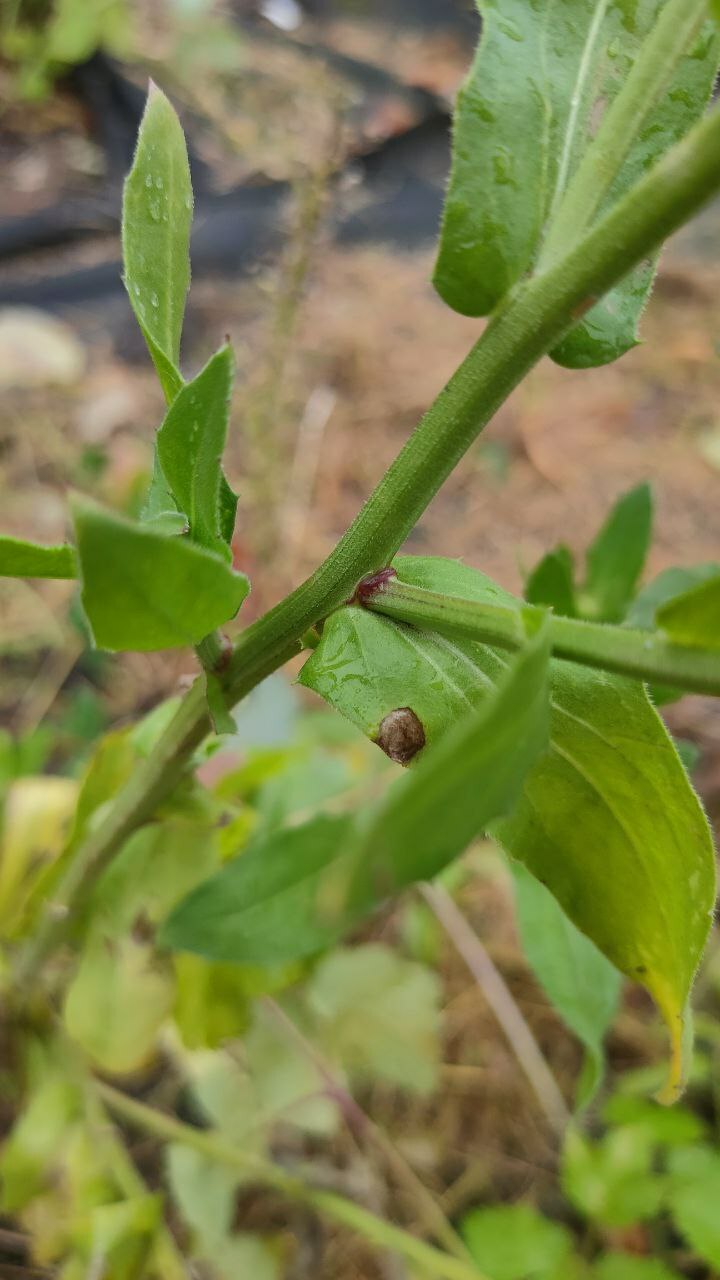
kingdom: Plantae
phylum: Tracheophyta
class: Magnoliopsida
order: Asterales
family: Asteraceae
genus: Calendula
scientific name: Calendula officinalis
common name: Pot marigold
